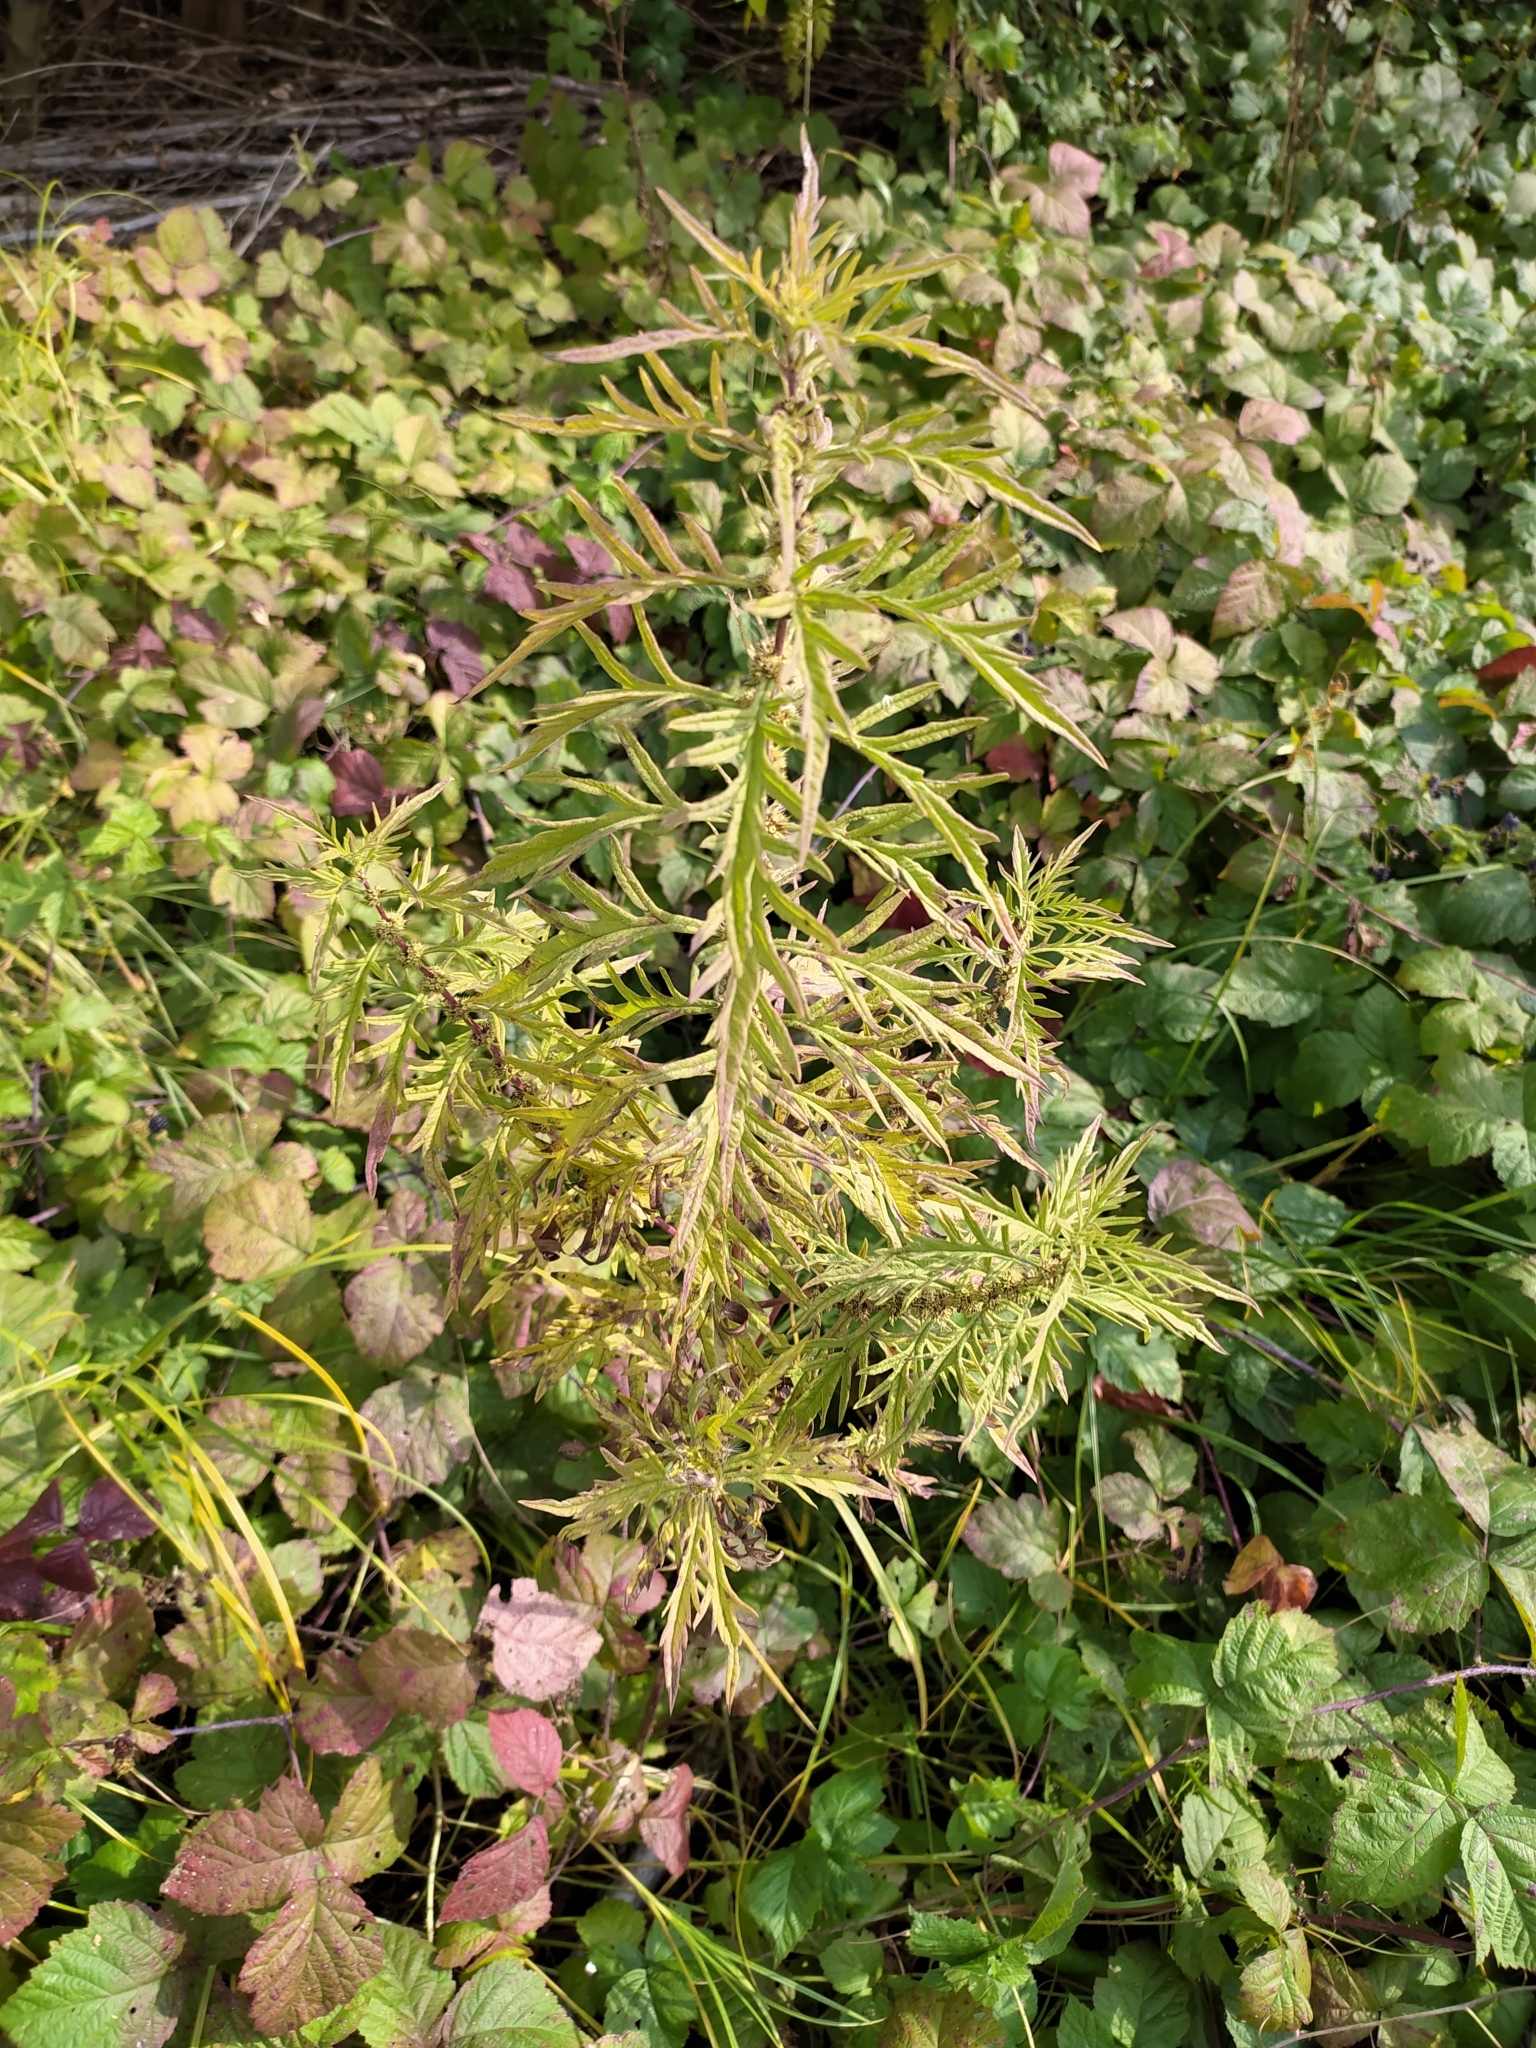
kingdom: Plantae
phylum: Tracheophyta
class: Magnoliopsida
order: Lamiales
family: Lamiaceae
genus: Lycopus
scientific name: Lycopus exaltatus
